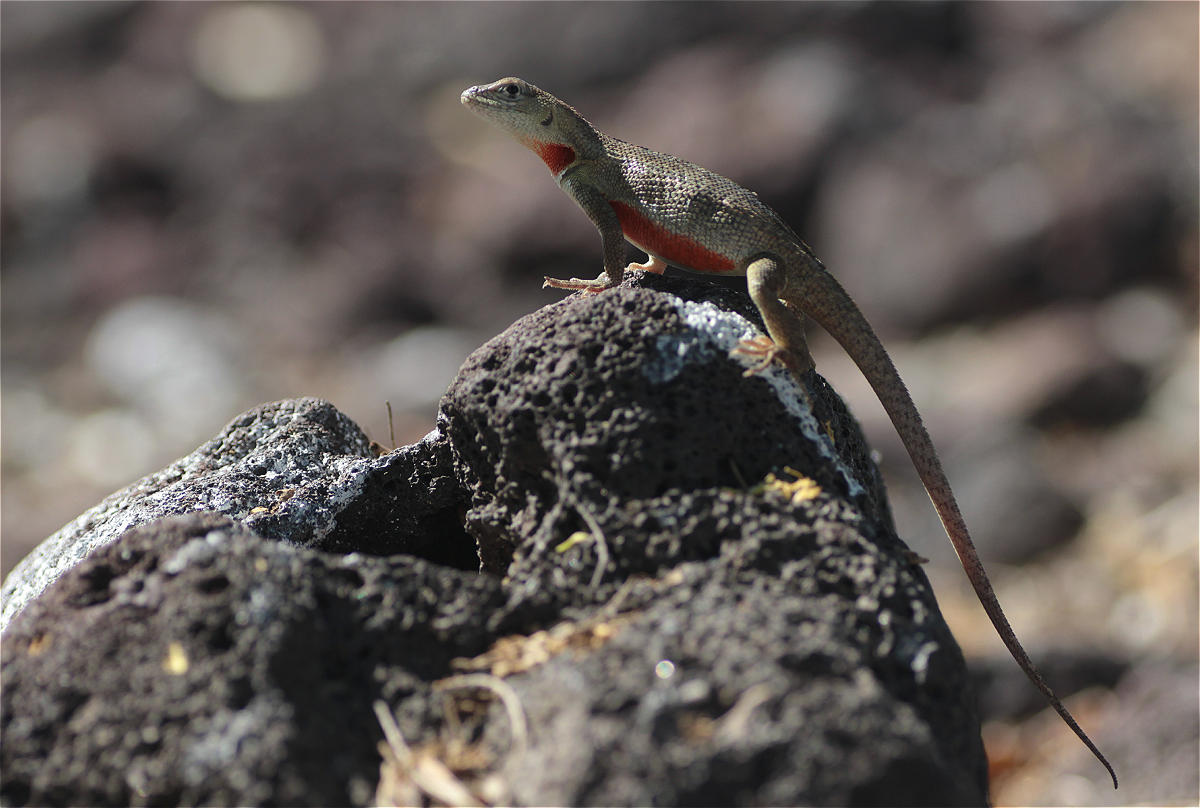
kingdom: Animalia
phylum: Chordata
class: Squamata
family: Tropiduridae
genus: Microlophus
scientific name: Microlophus bivittatus
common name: San cristobal lava lizard
